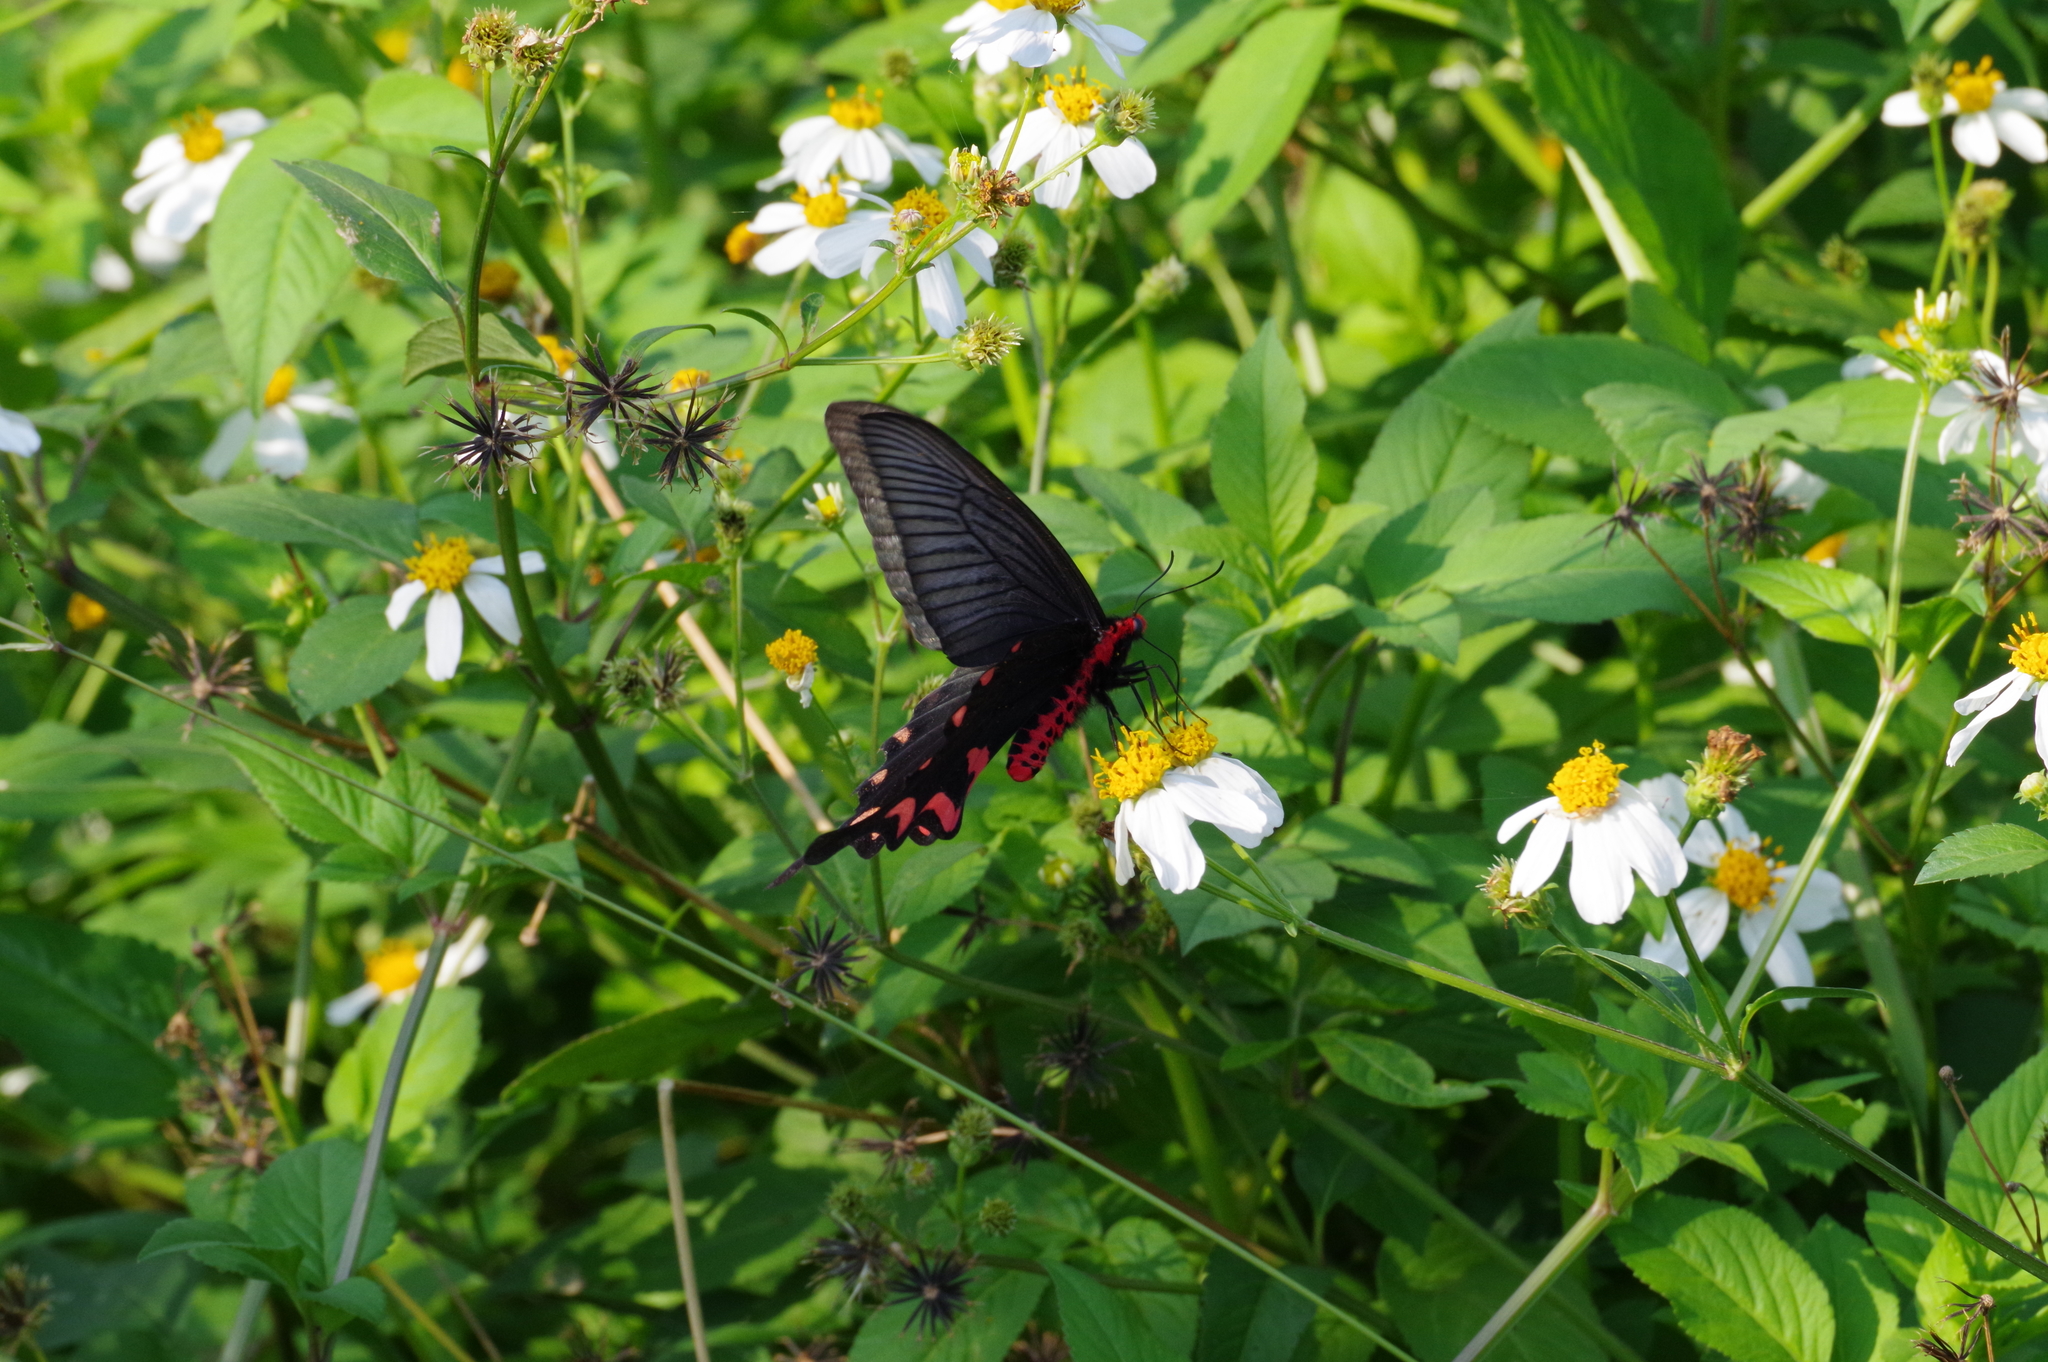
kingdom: Animalia
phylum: Arthropoda
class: Insecta
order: Lepidoptera
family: Papilionidae
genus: Byasa
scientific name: Byasa alcinous
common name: Chinese windmill
